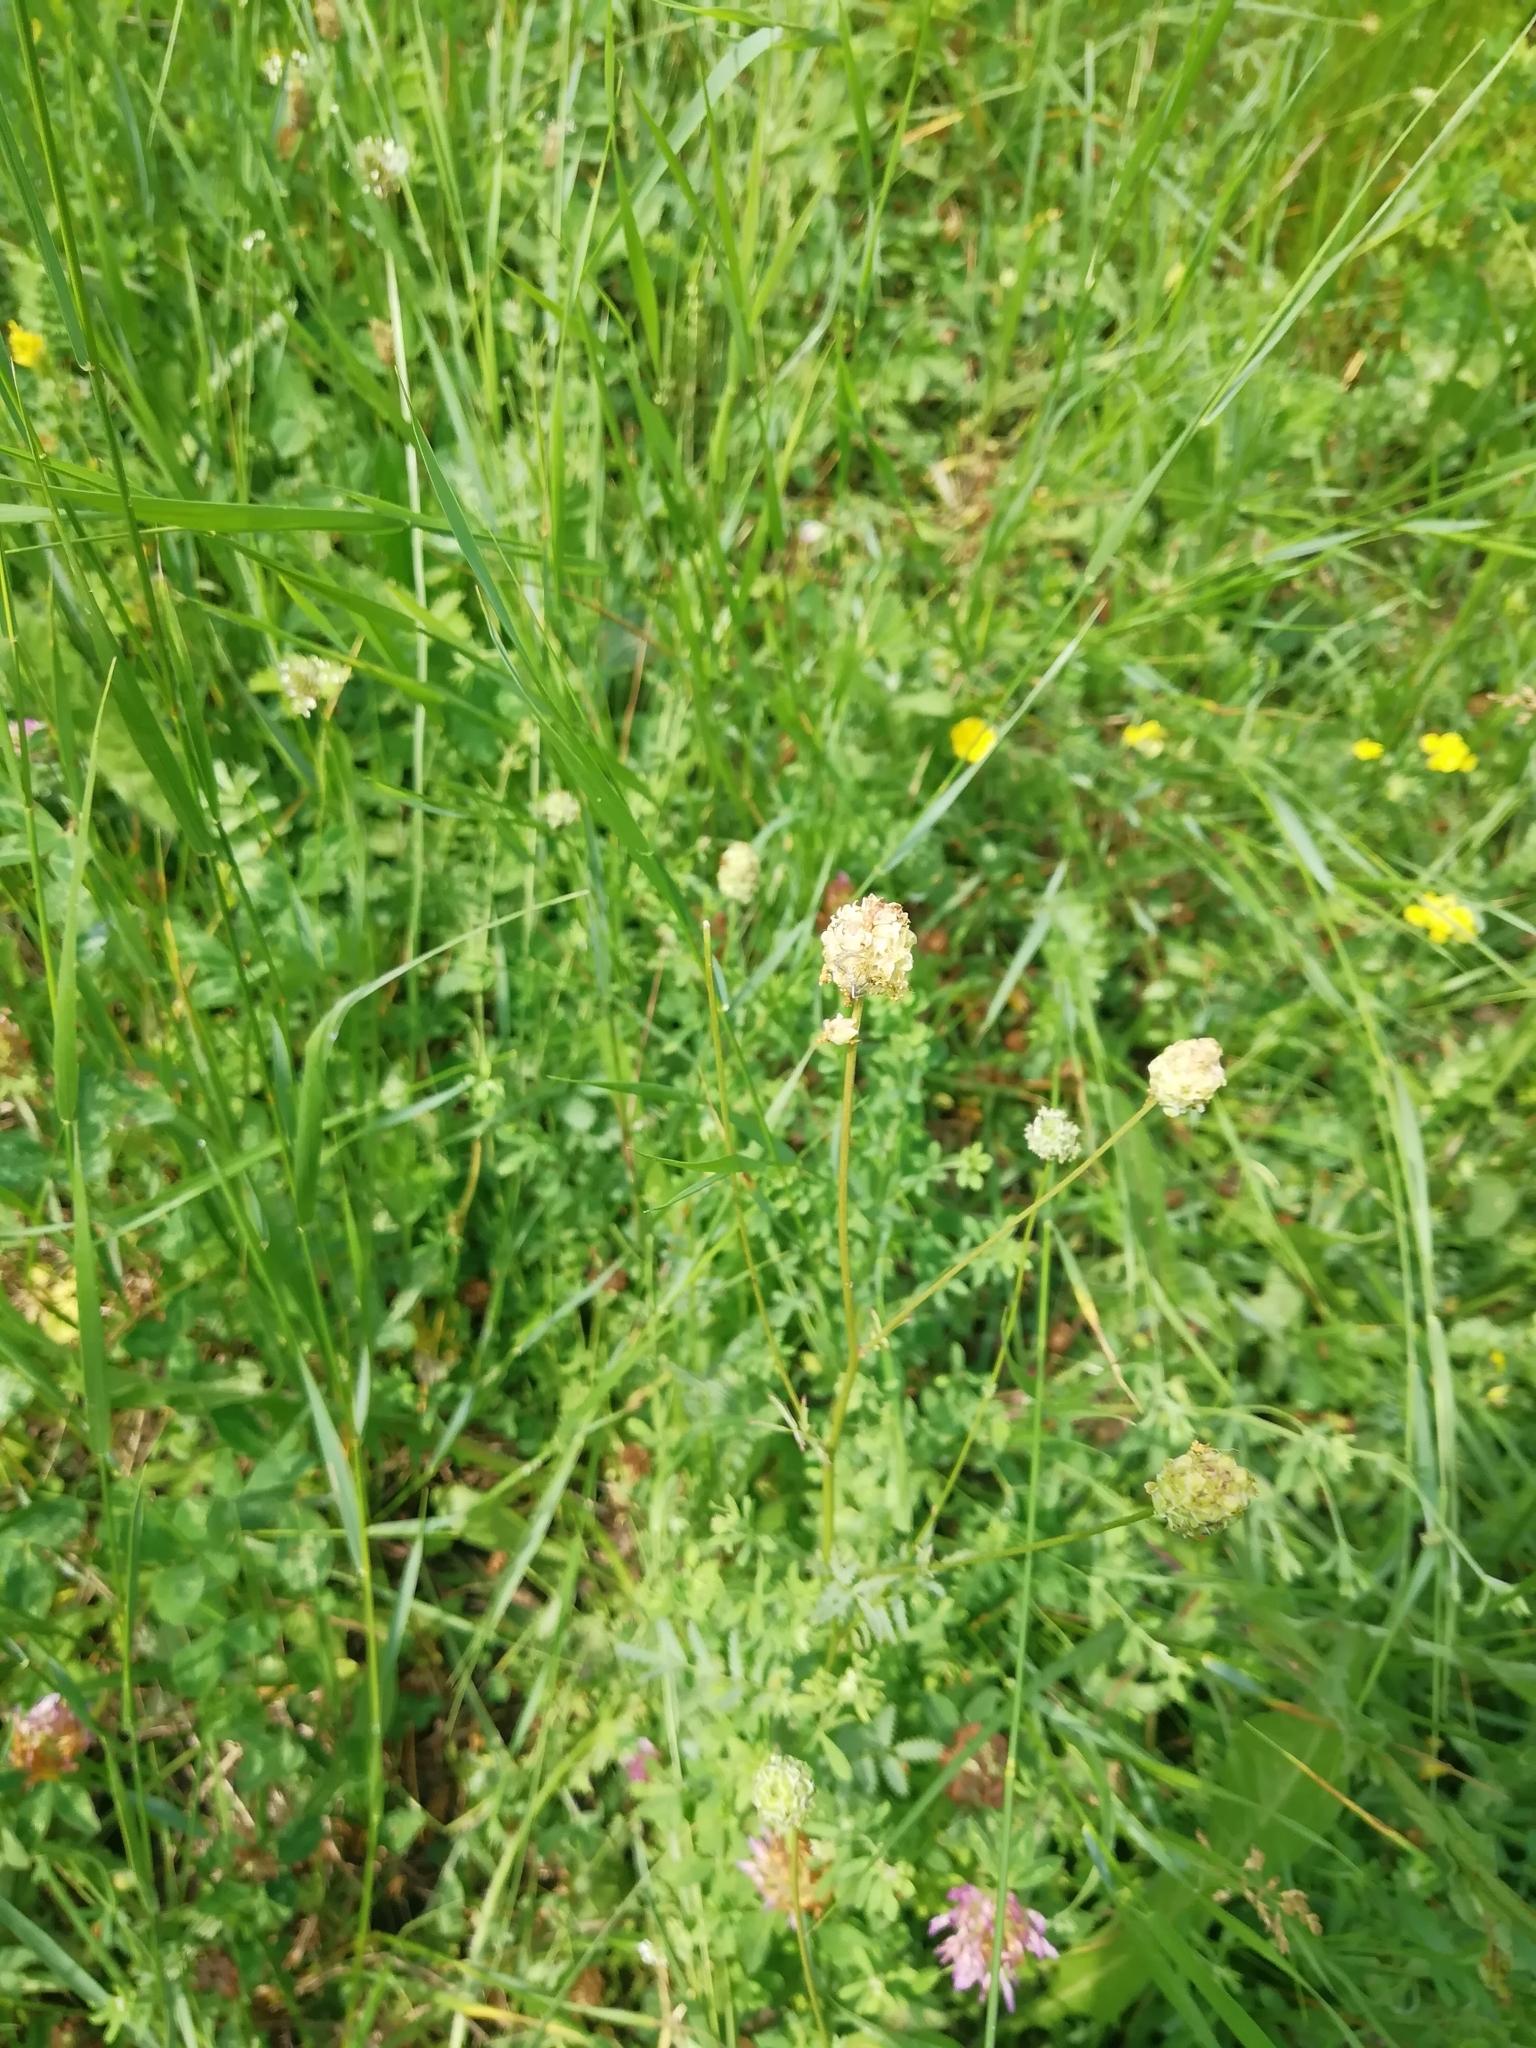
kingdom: Plantae
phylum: Tracheophyta
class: Magnoliopsida
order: Rosales
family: Rosaceae
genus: Poterium
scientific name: Poterium sanguisorba
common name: Salad burnet
